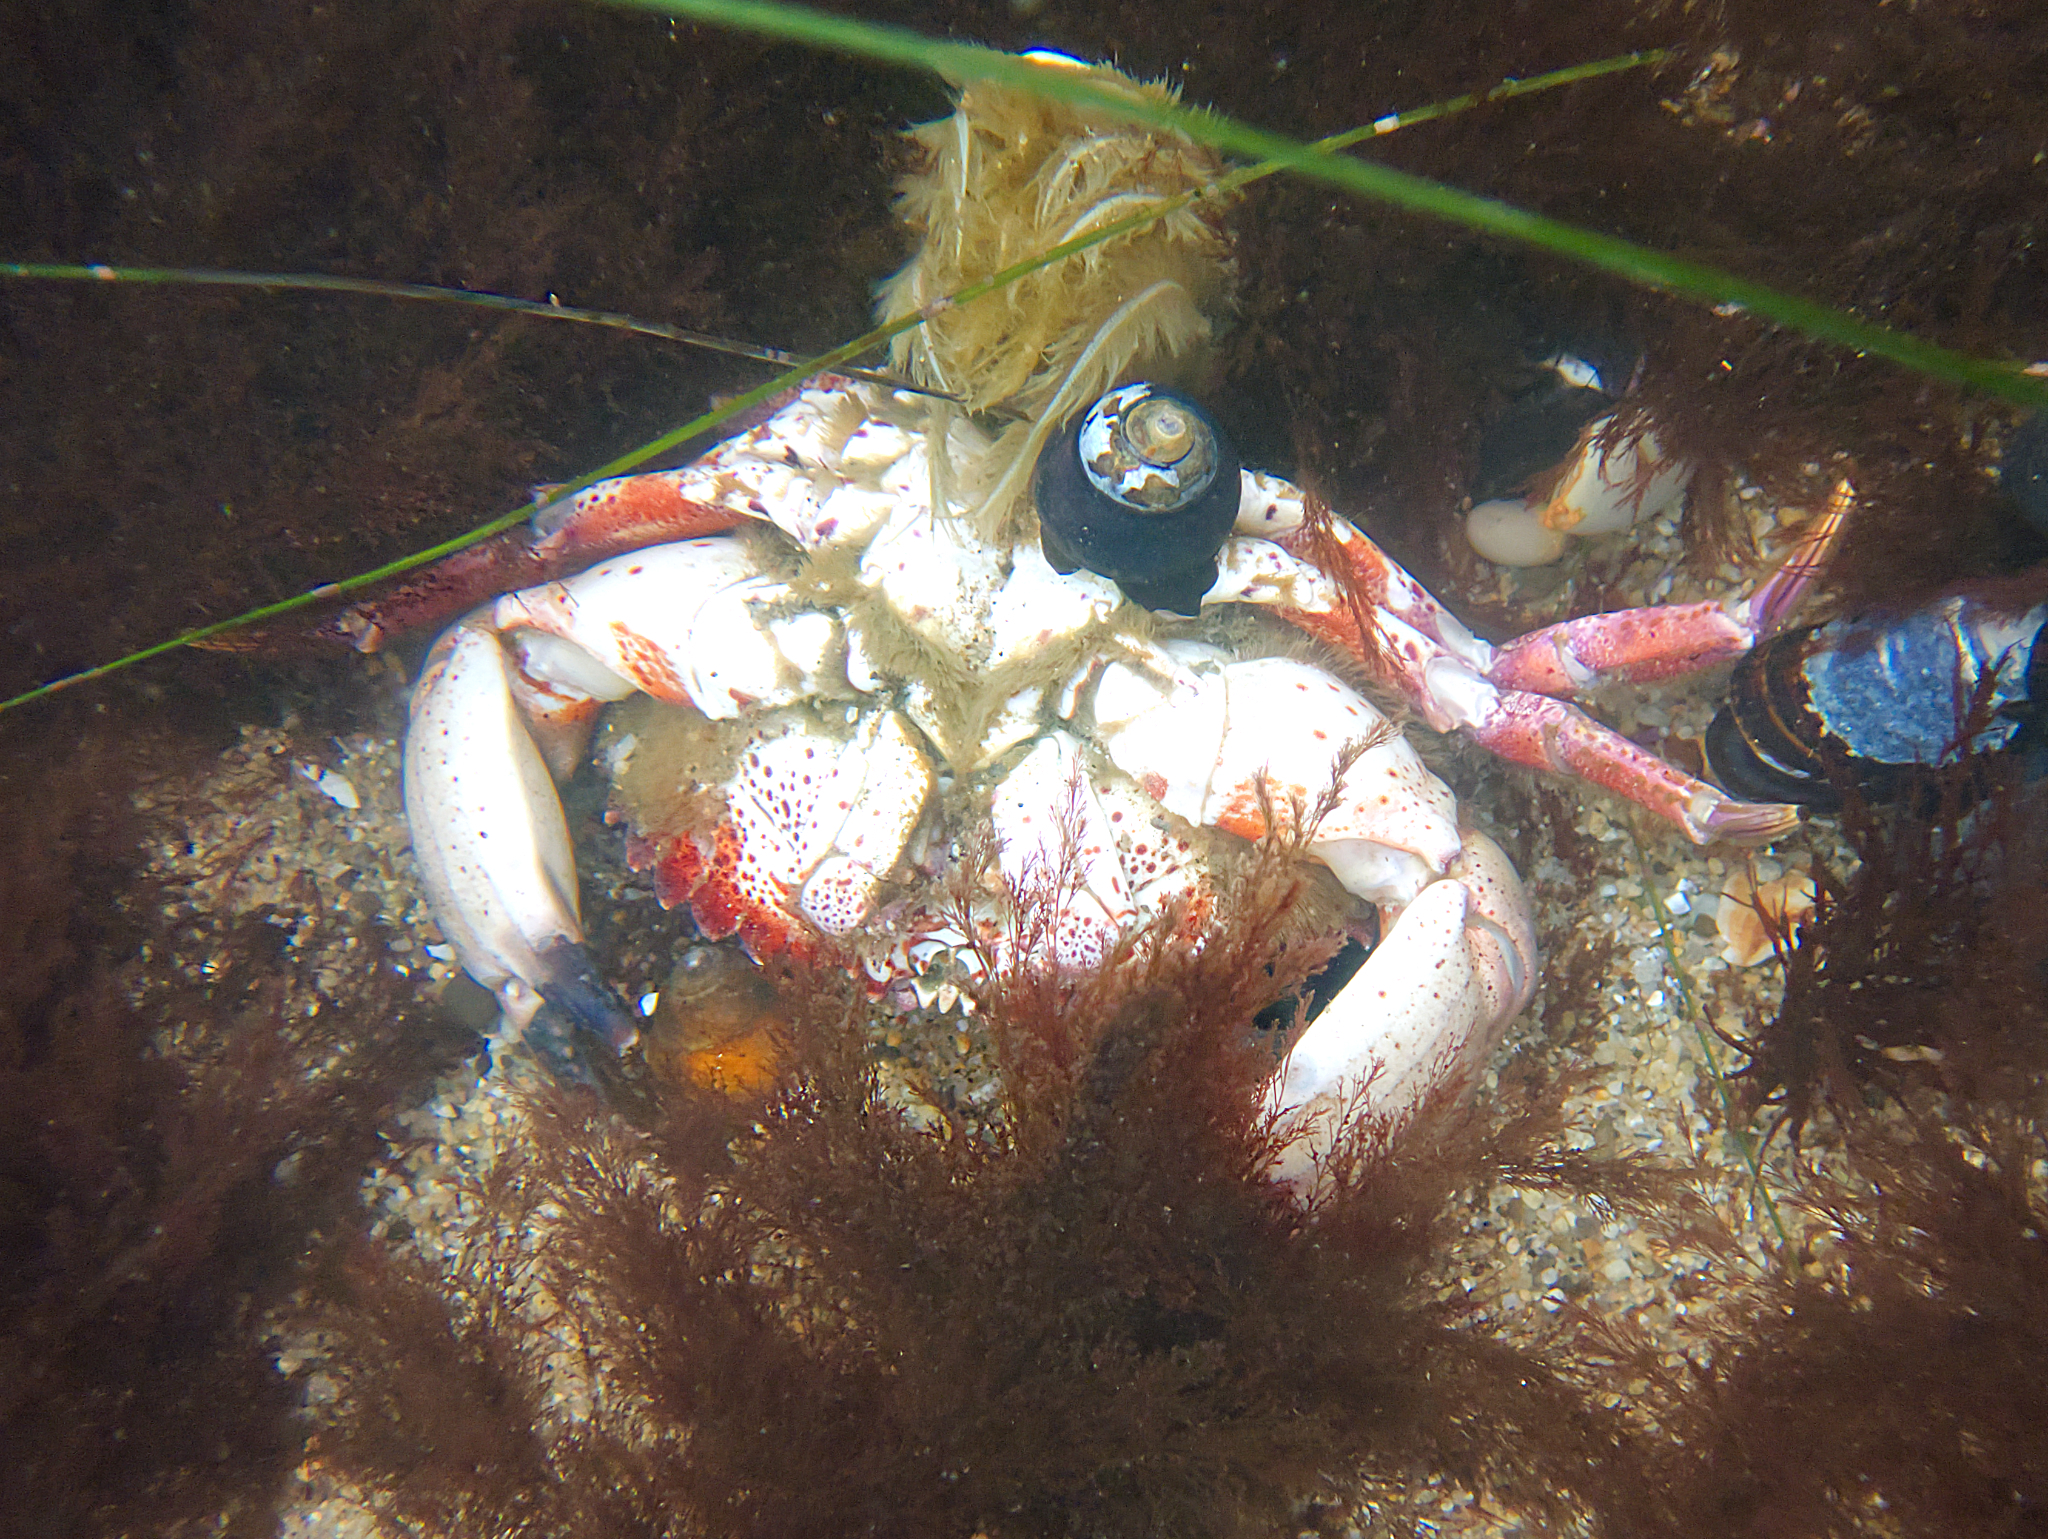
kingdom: Animalia
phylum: Arthropoda
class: Malacostraca
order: Decapoda
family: Cancridae
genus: Romaleon
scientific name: Romaleon antennarium
